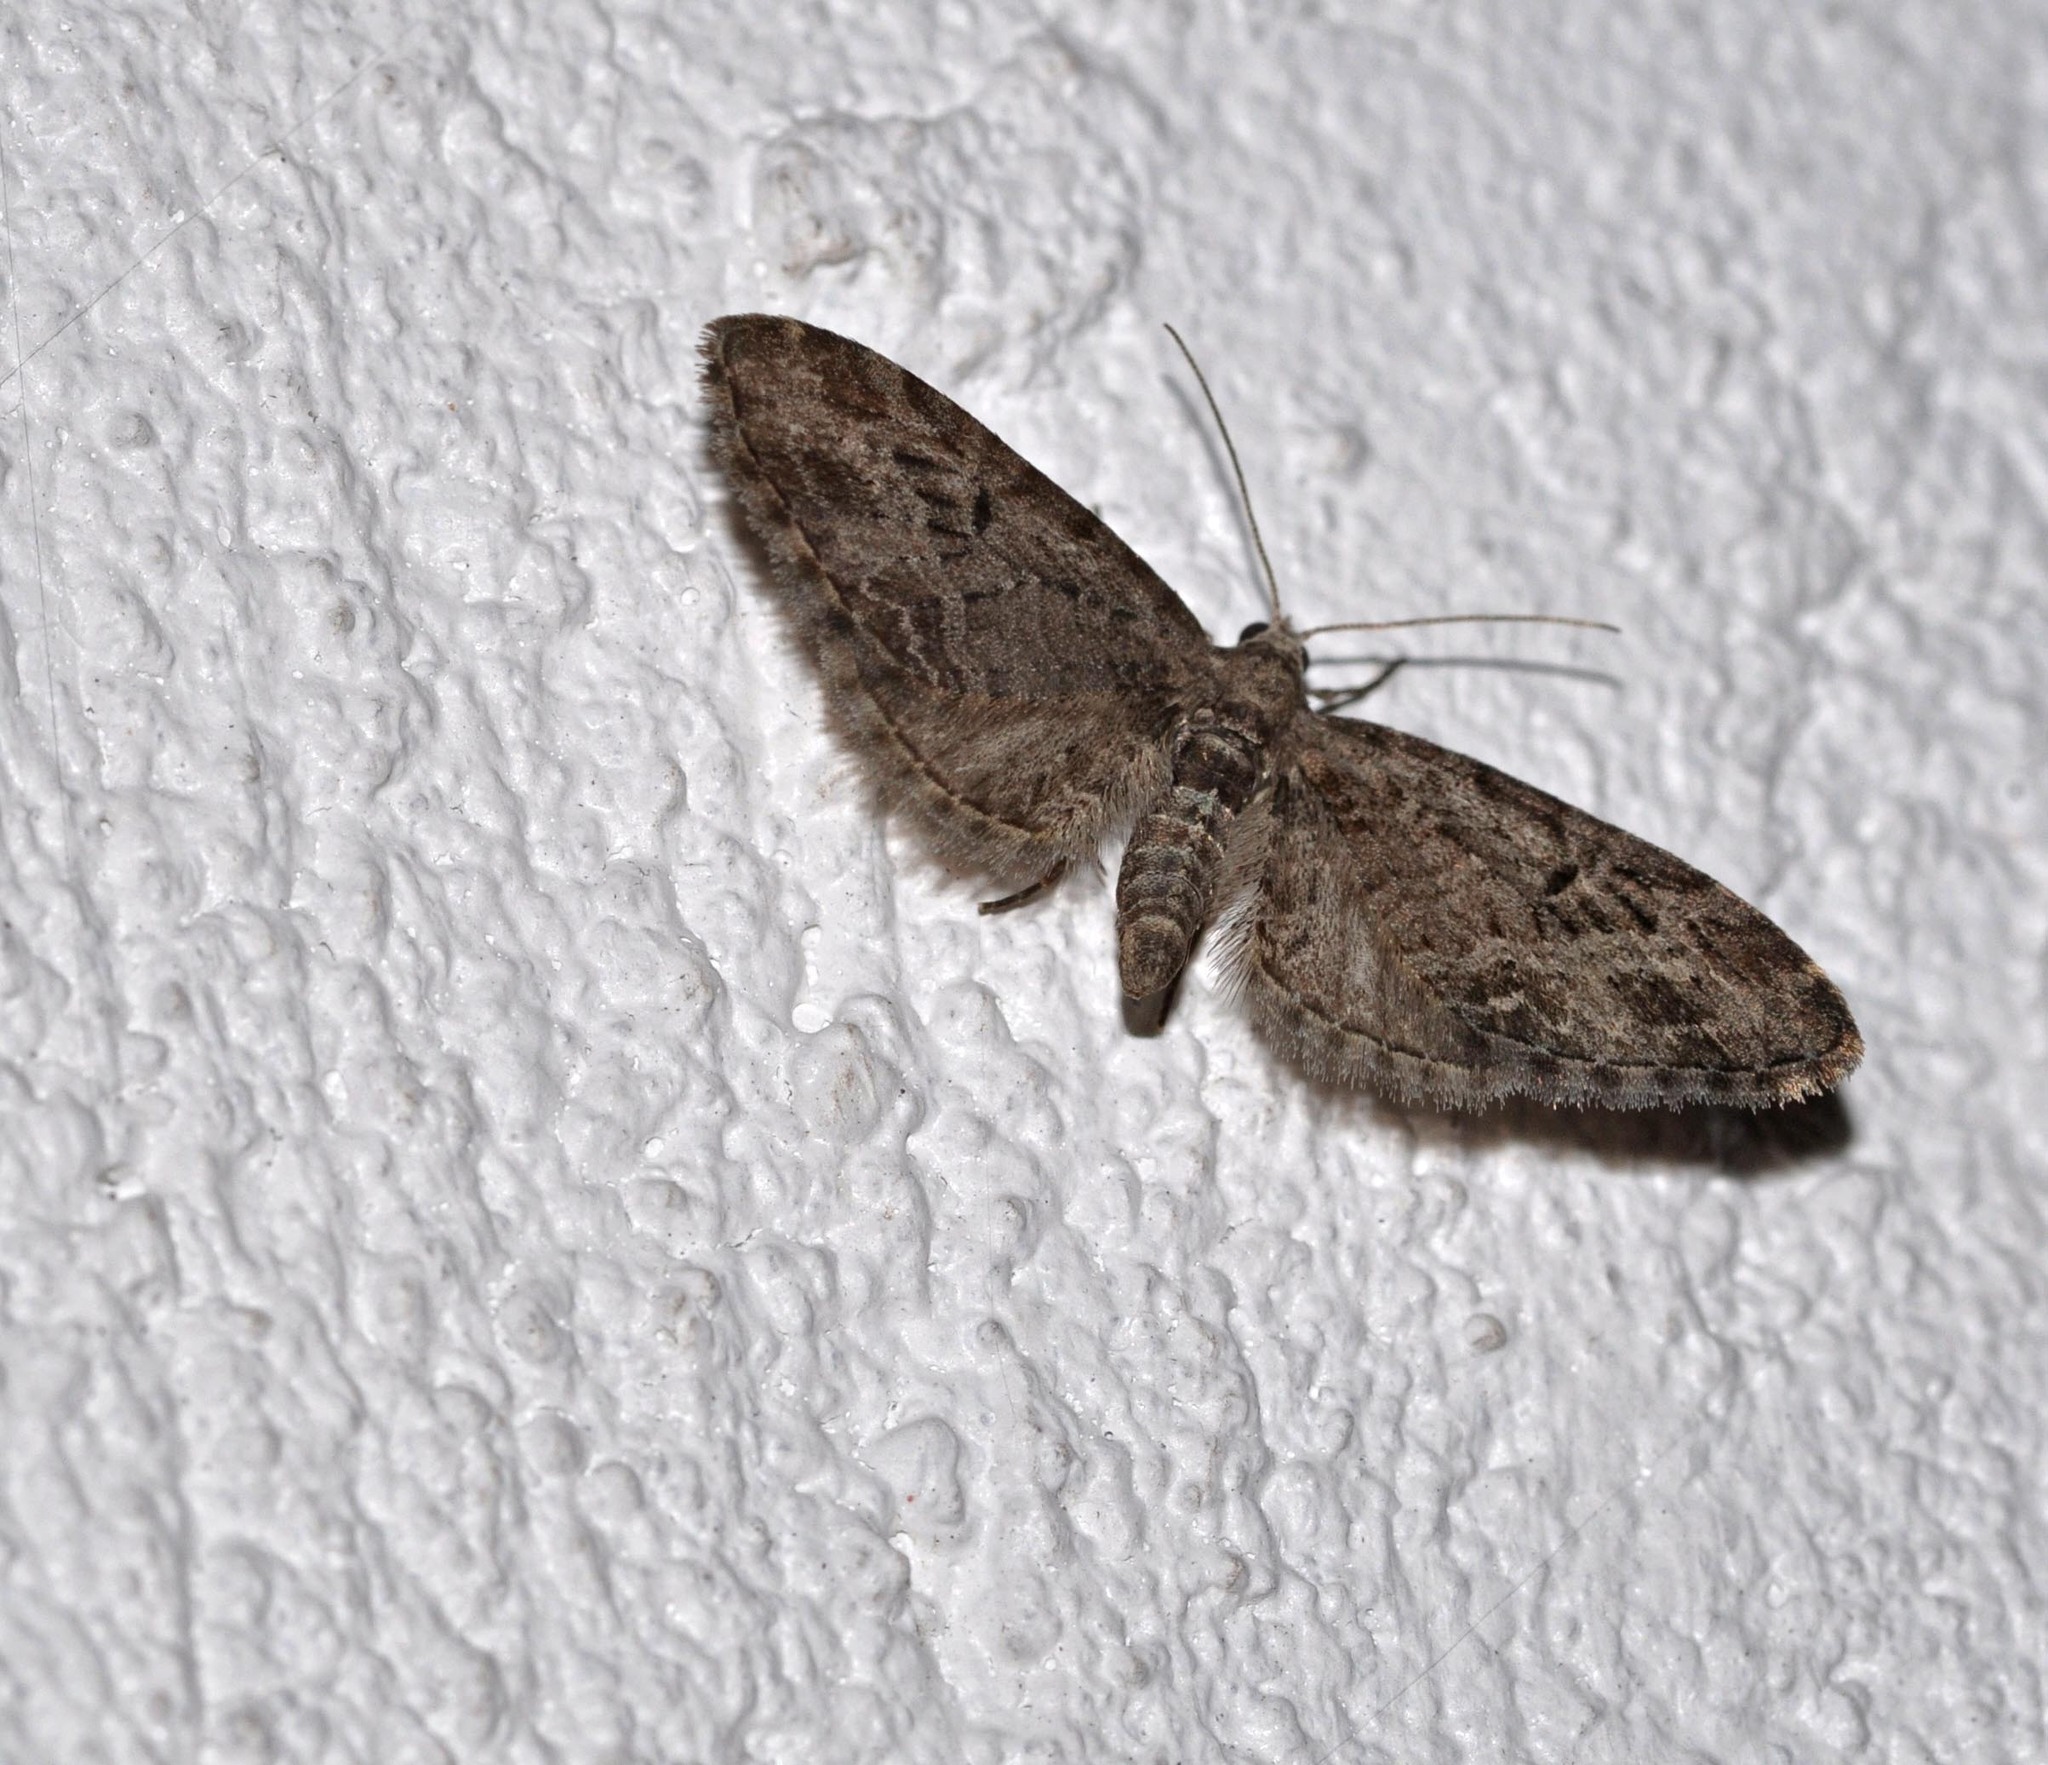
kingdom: Animalia
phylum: Arthropoda
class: Insecta
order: Lepidoptera
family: Geometridae
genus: Eupithecia
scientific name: Eupithecia exiguata
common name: Mottled pug
